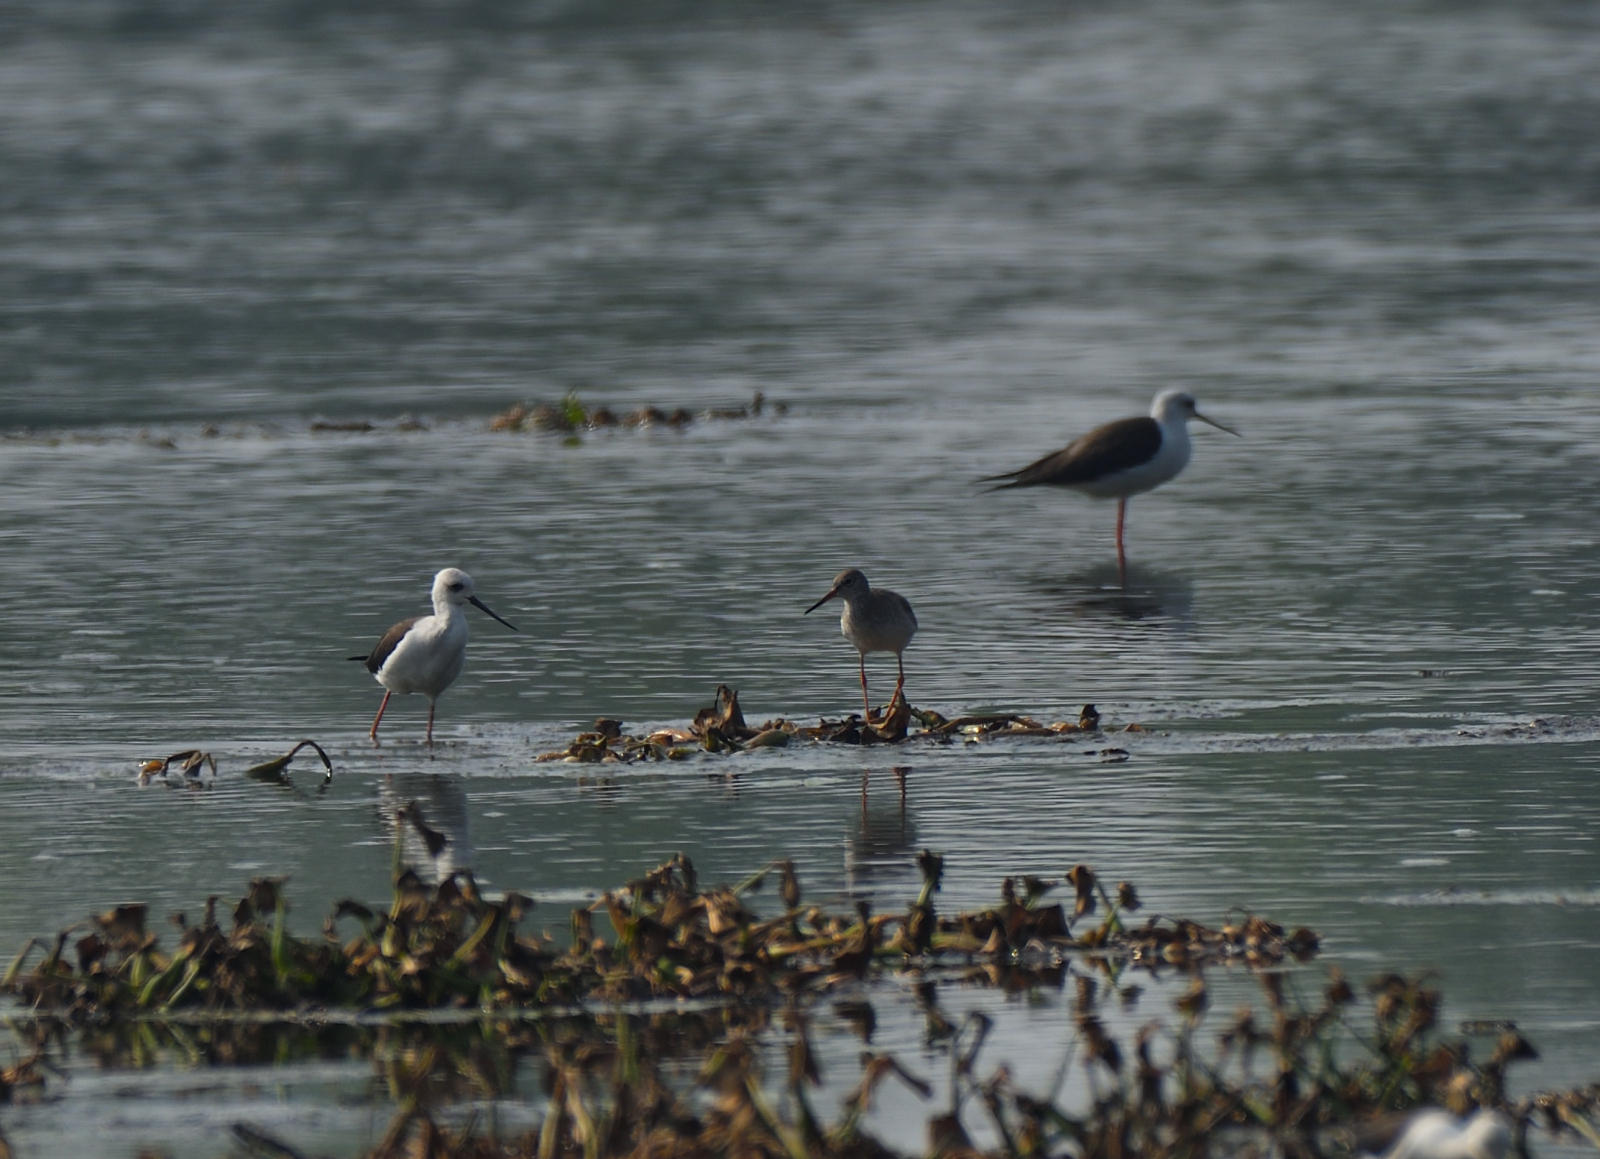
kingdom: Animalia
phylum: Chordata
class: Aves
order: Charadriiformes
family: Recurvirostridae
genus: Himantopus
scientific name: Himantopus himantopus
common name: Black-winged stilt
